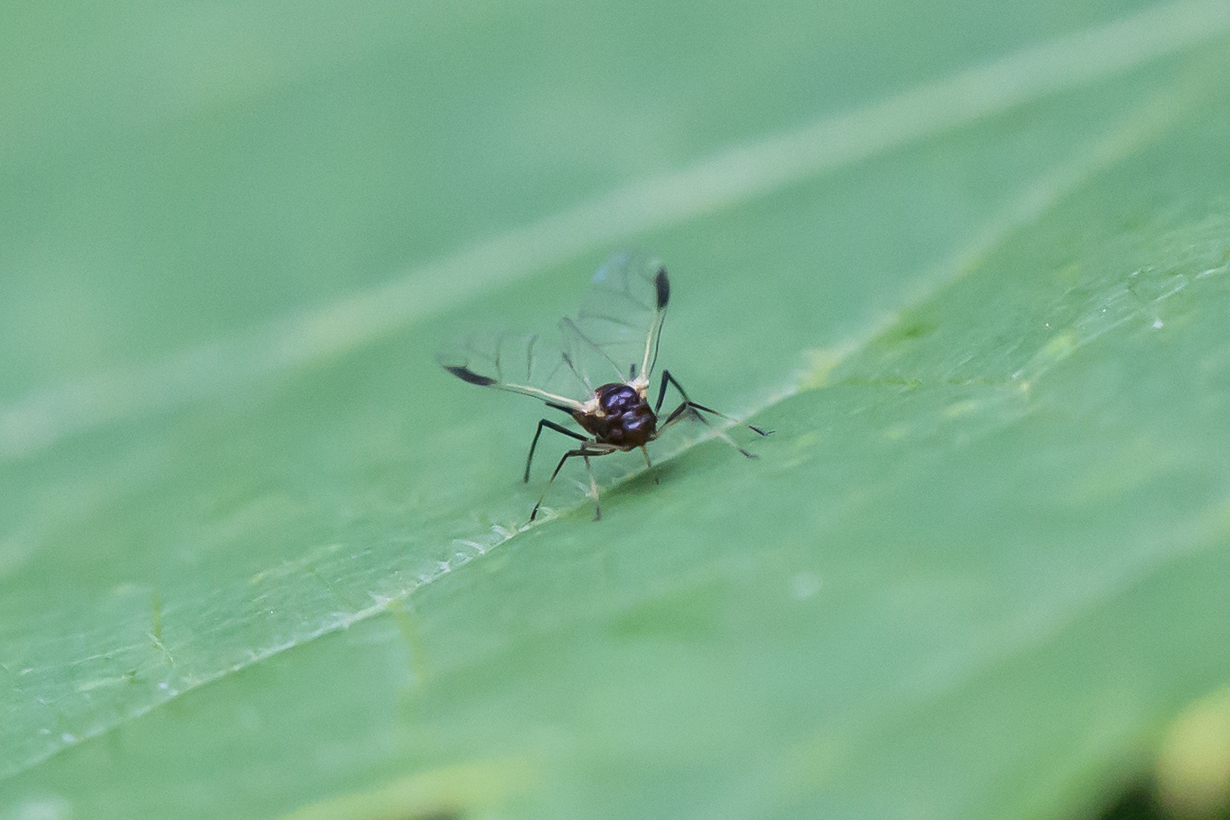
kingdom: Animalia
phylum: Arthropoda
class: Insecta
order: Hemiptera
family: Aphididae
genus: Aphis
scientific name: Aphis illinoisensis
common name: Grapevine aphid
